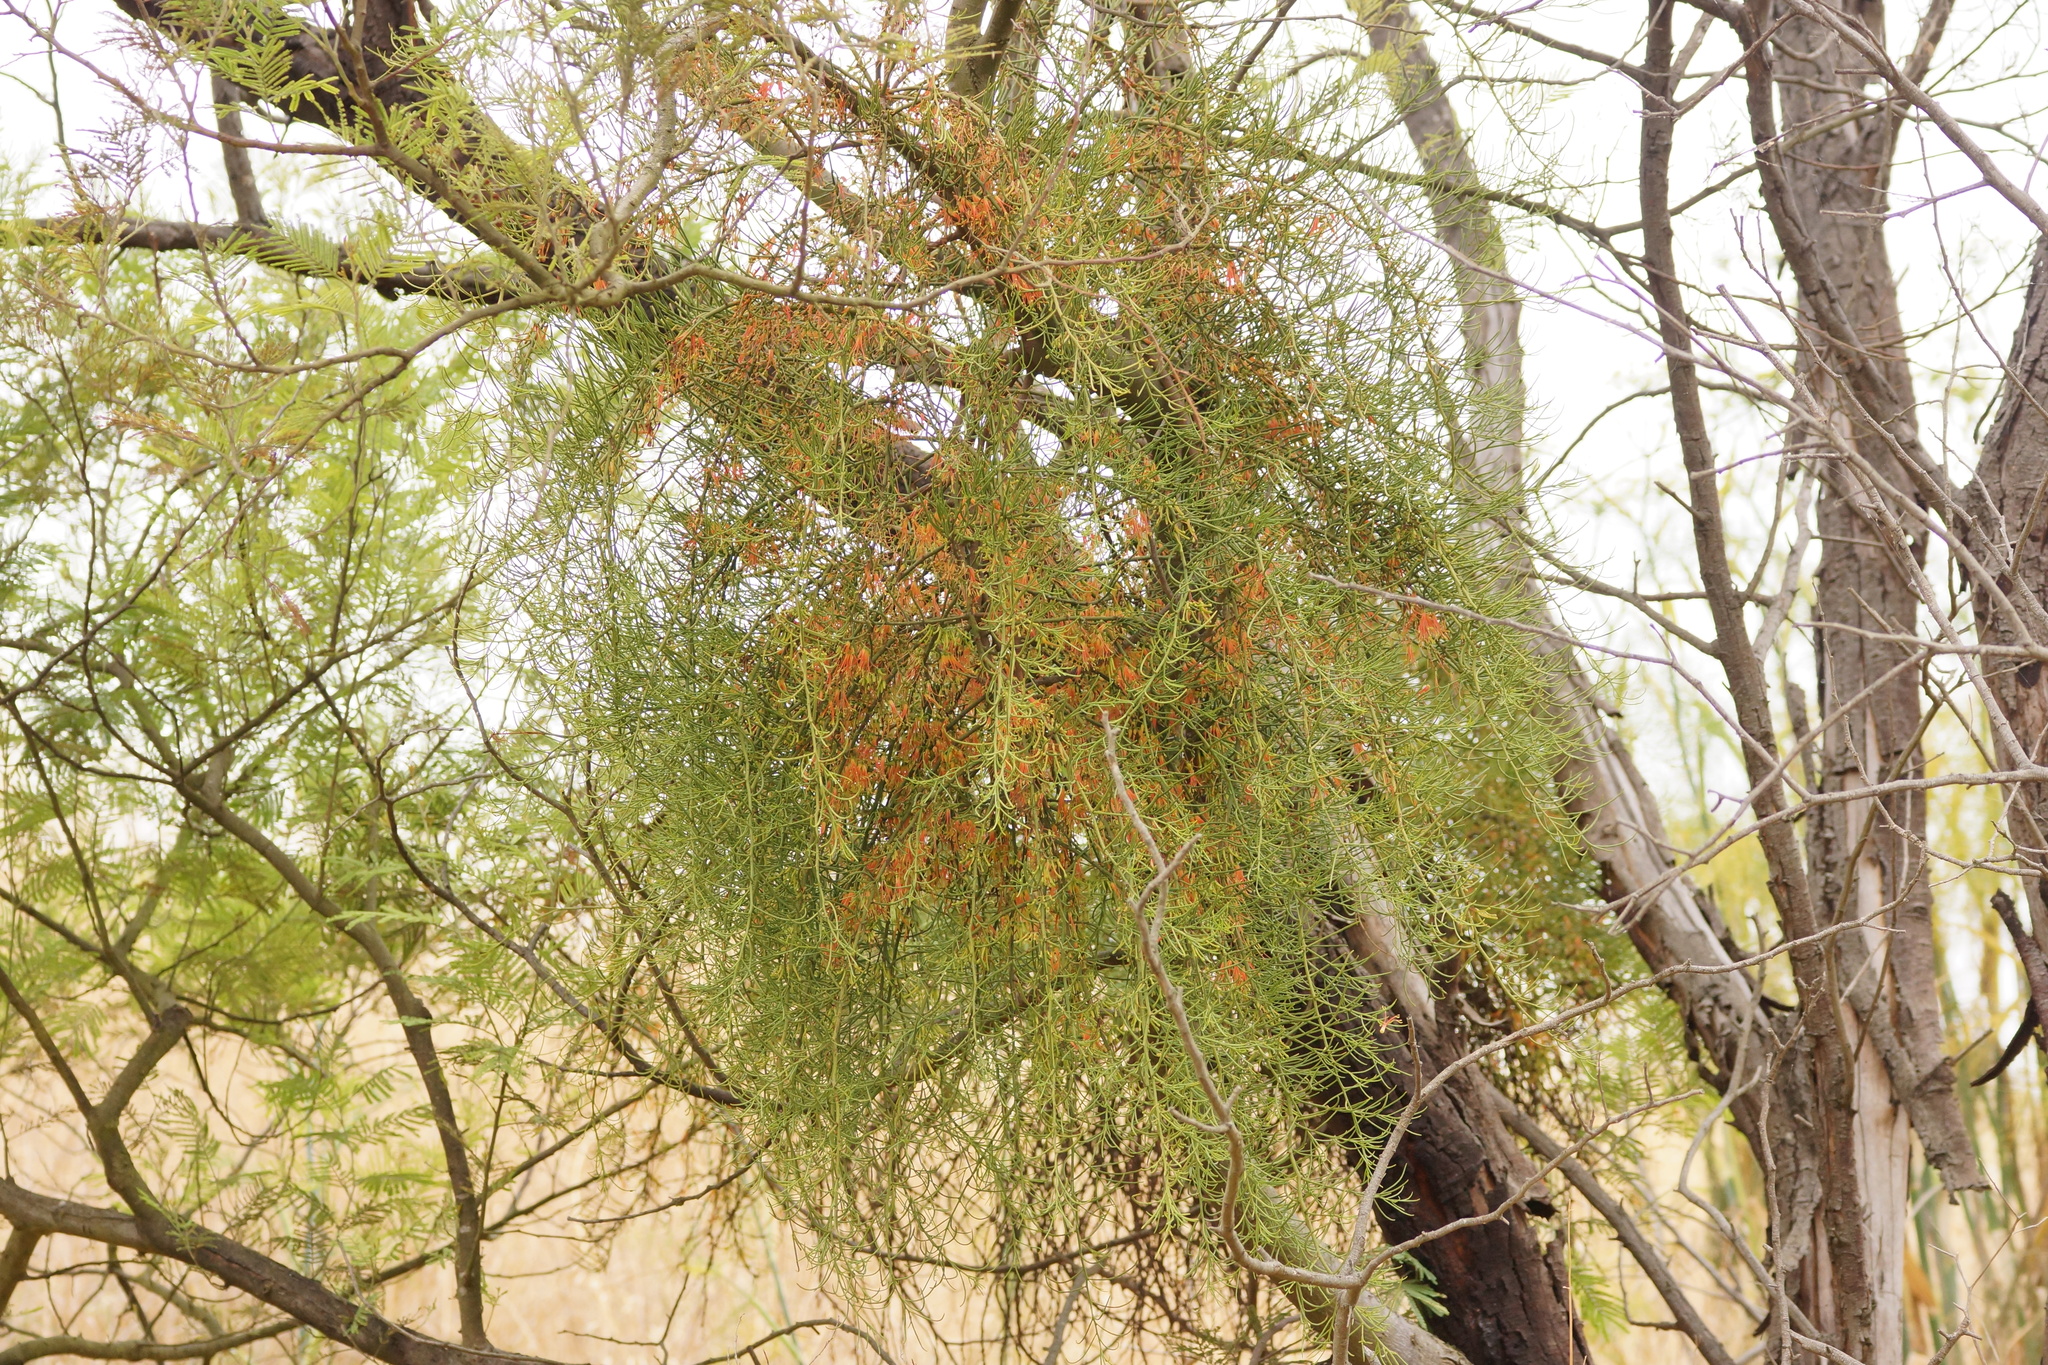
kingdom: Plantae
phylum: Tracheophyta
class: Magnoliopsida
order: Santalales
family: Loranthaceae
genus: Amyema
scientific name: Amyema preissii
